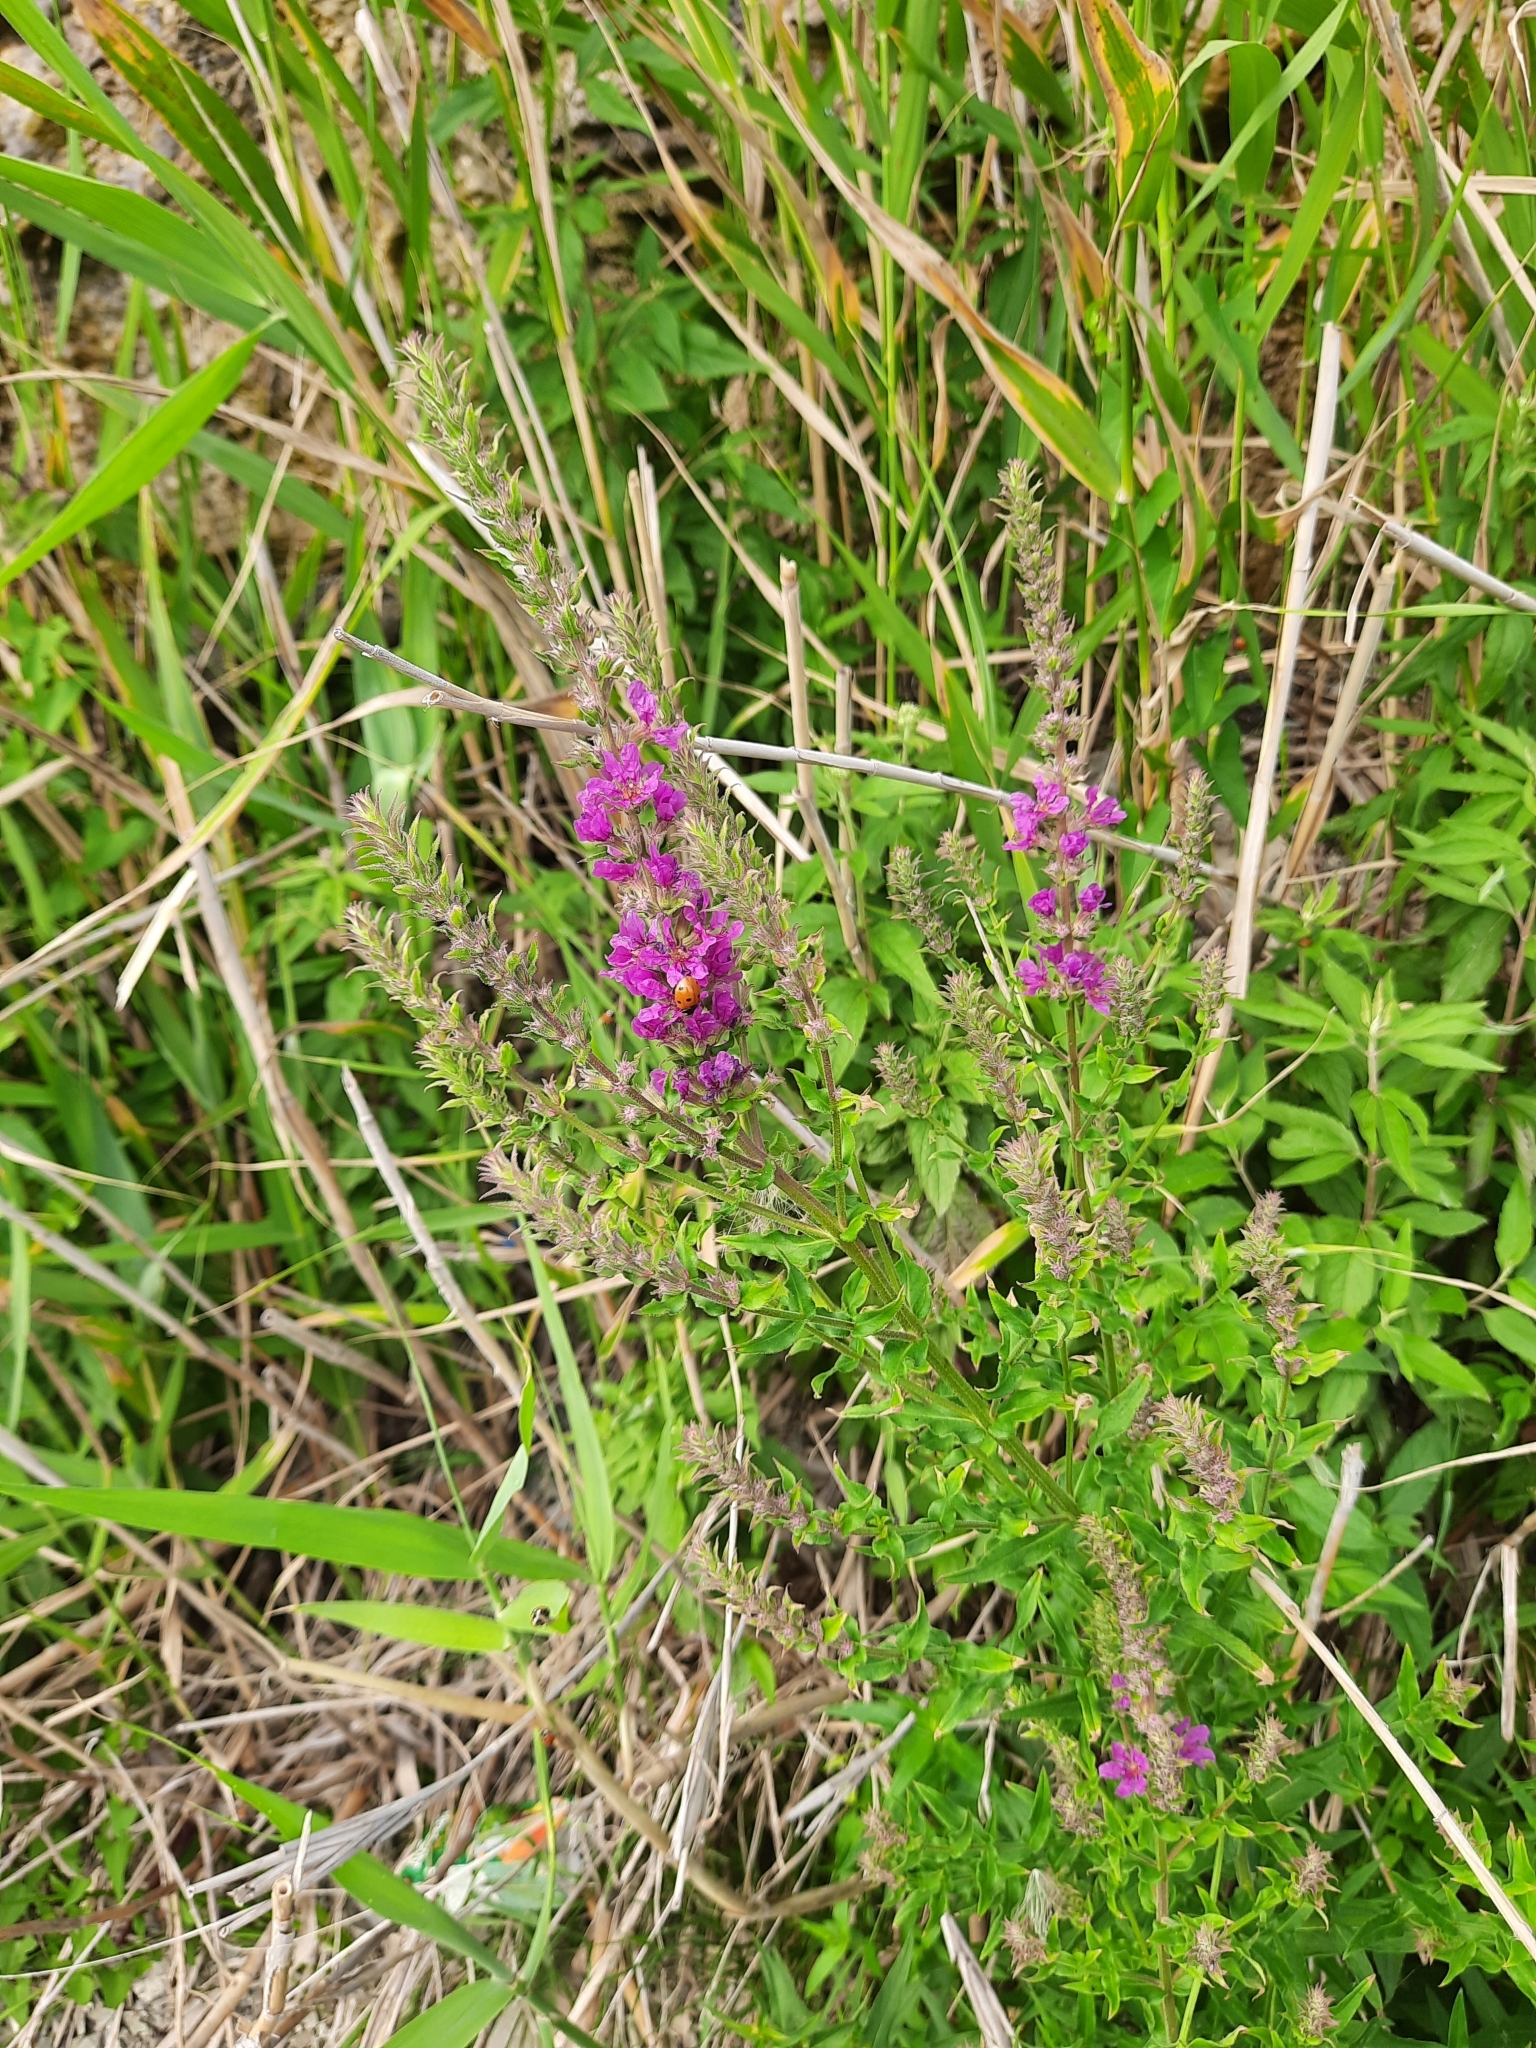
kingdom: Plantae
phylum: Tracheophyta
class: Magnoliopsida
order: Myrtales
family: Lythraceae
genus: Lythrum
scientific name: Lythrum salicaria
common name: Purple loosestrife
